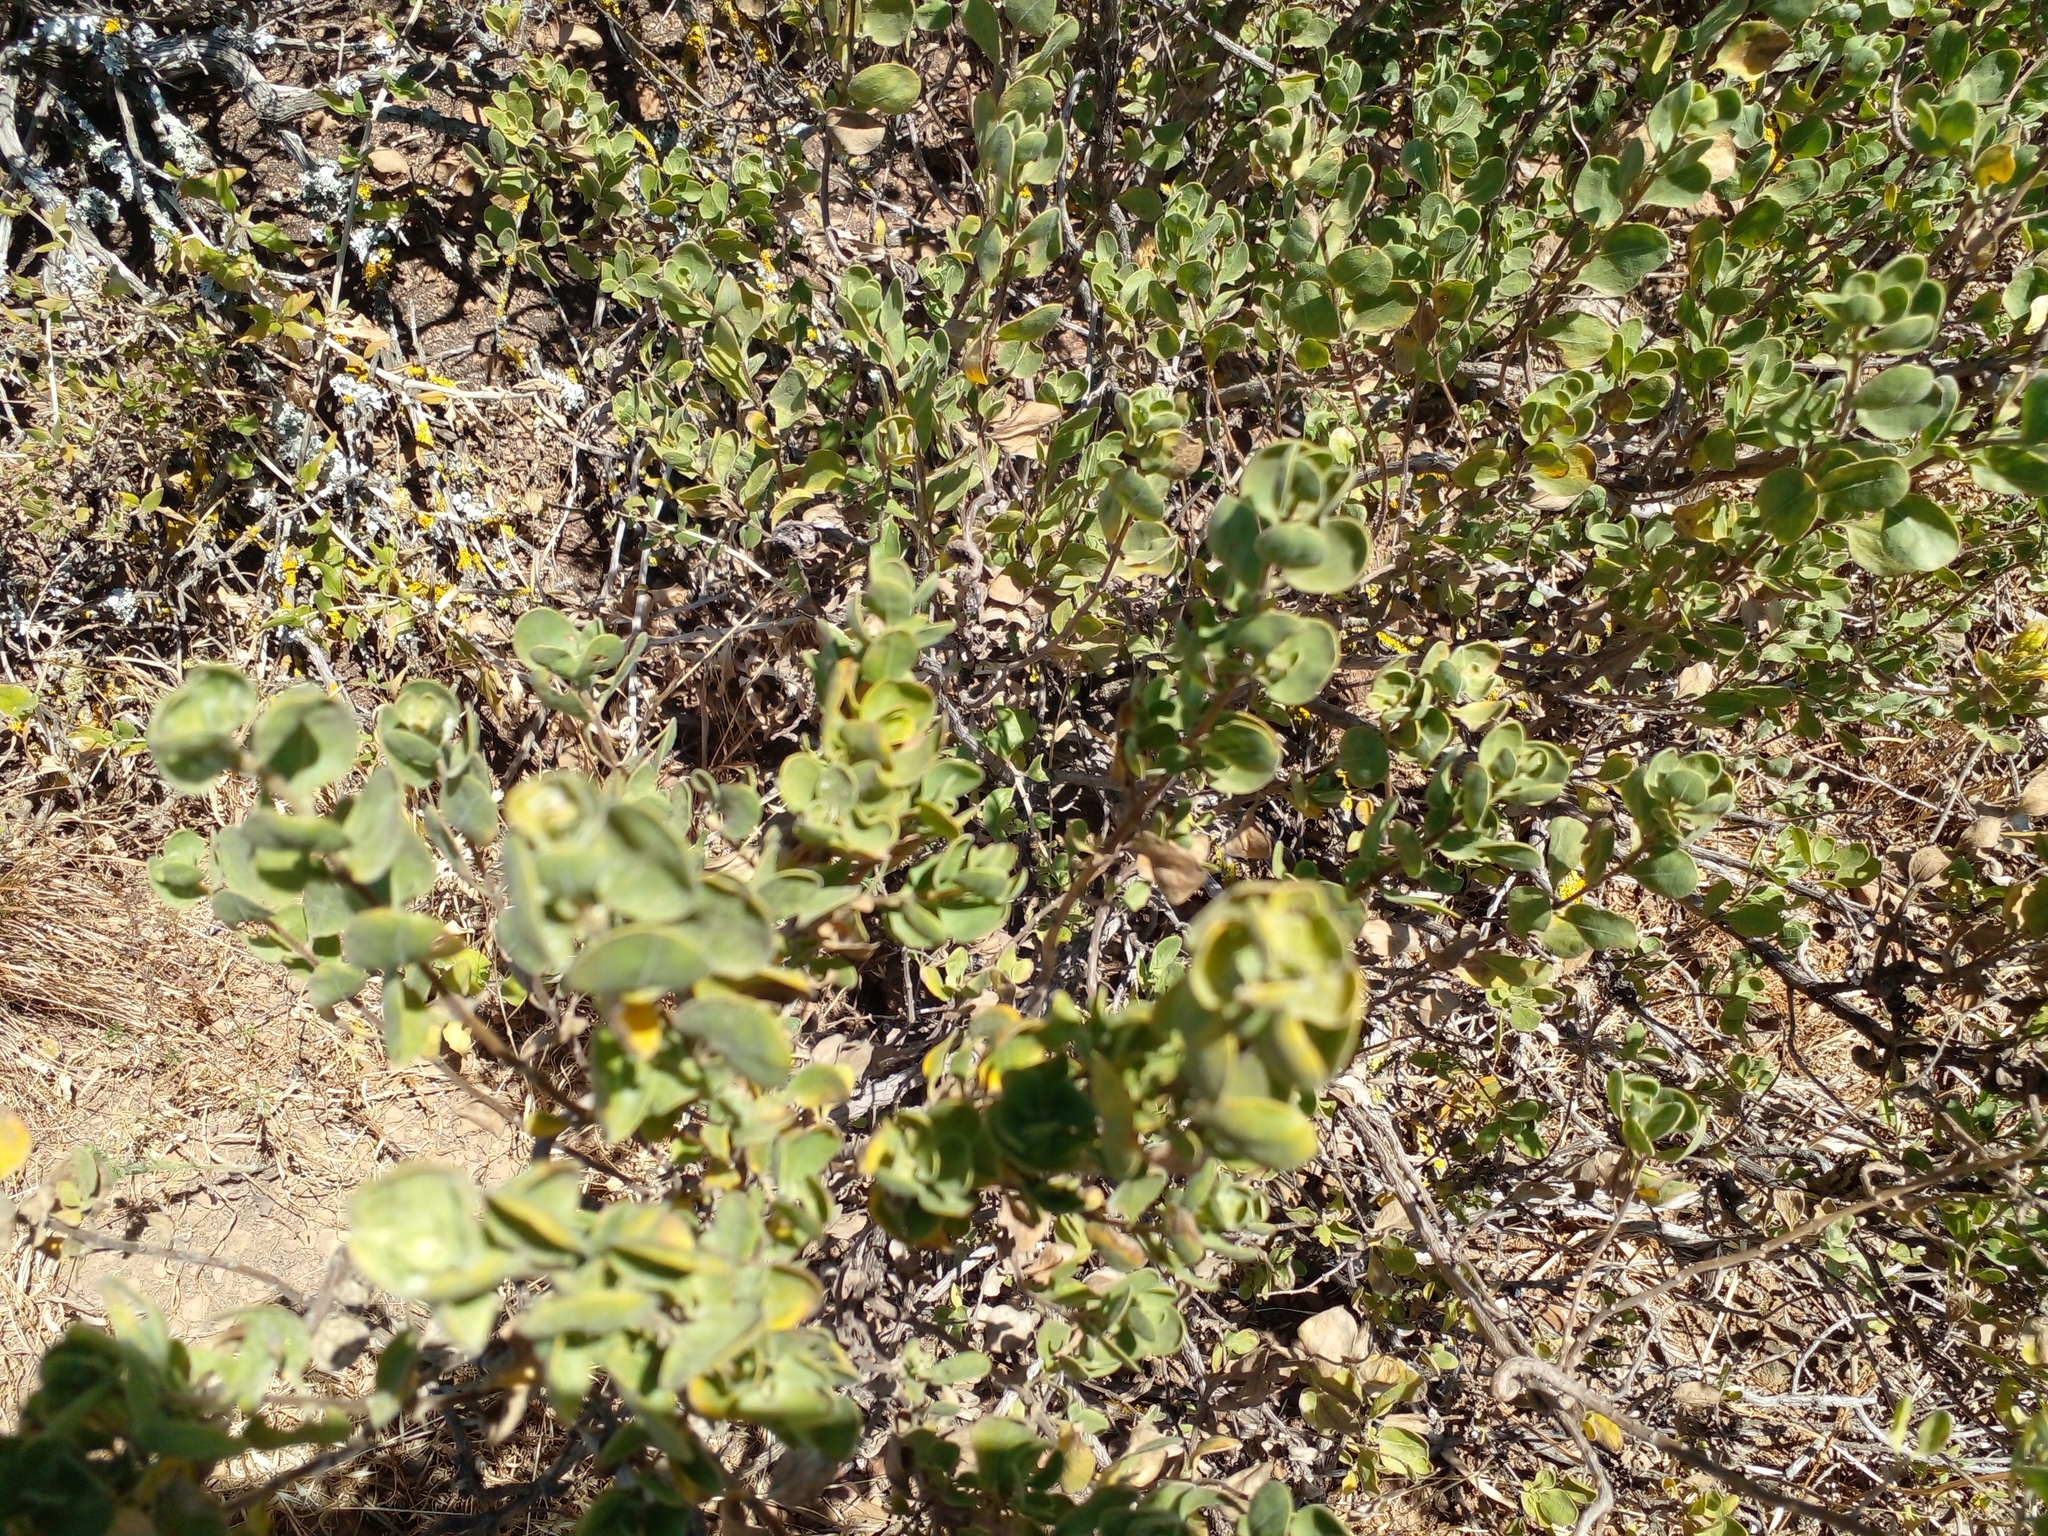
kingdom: Plantae
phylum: Tracheophyta
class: Magnoliopsida
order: Asterales
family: Asteraceae
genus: Pteronia
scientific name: Pteronia divaricata
